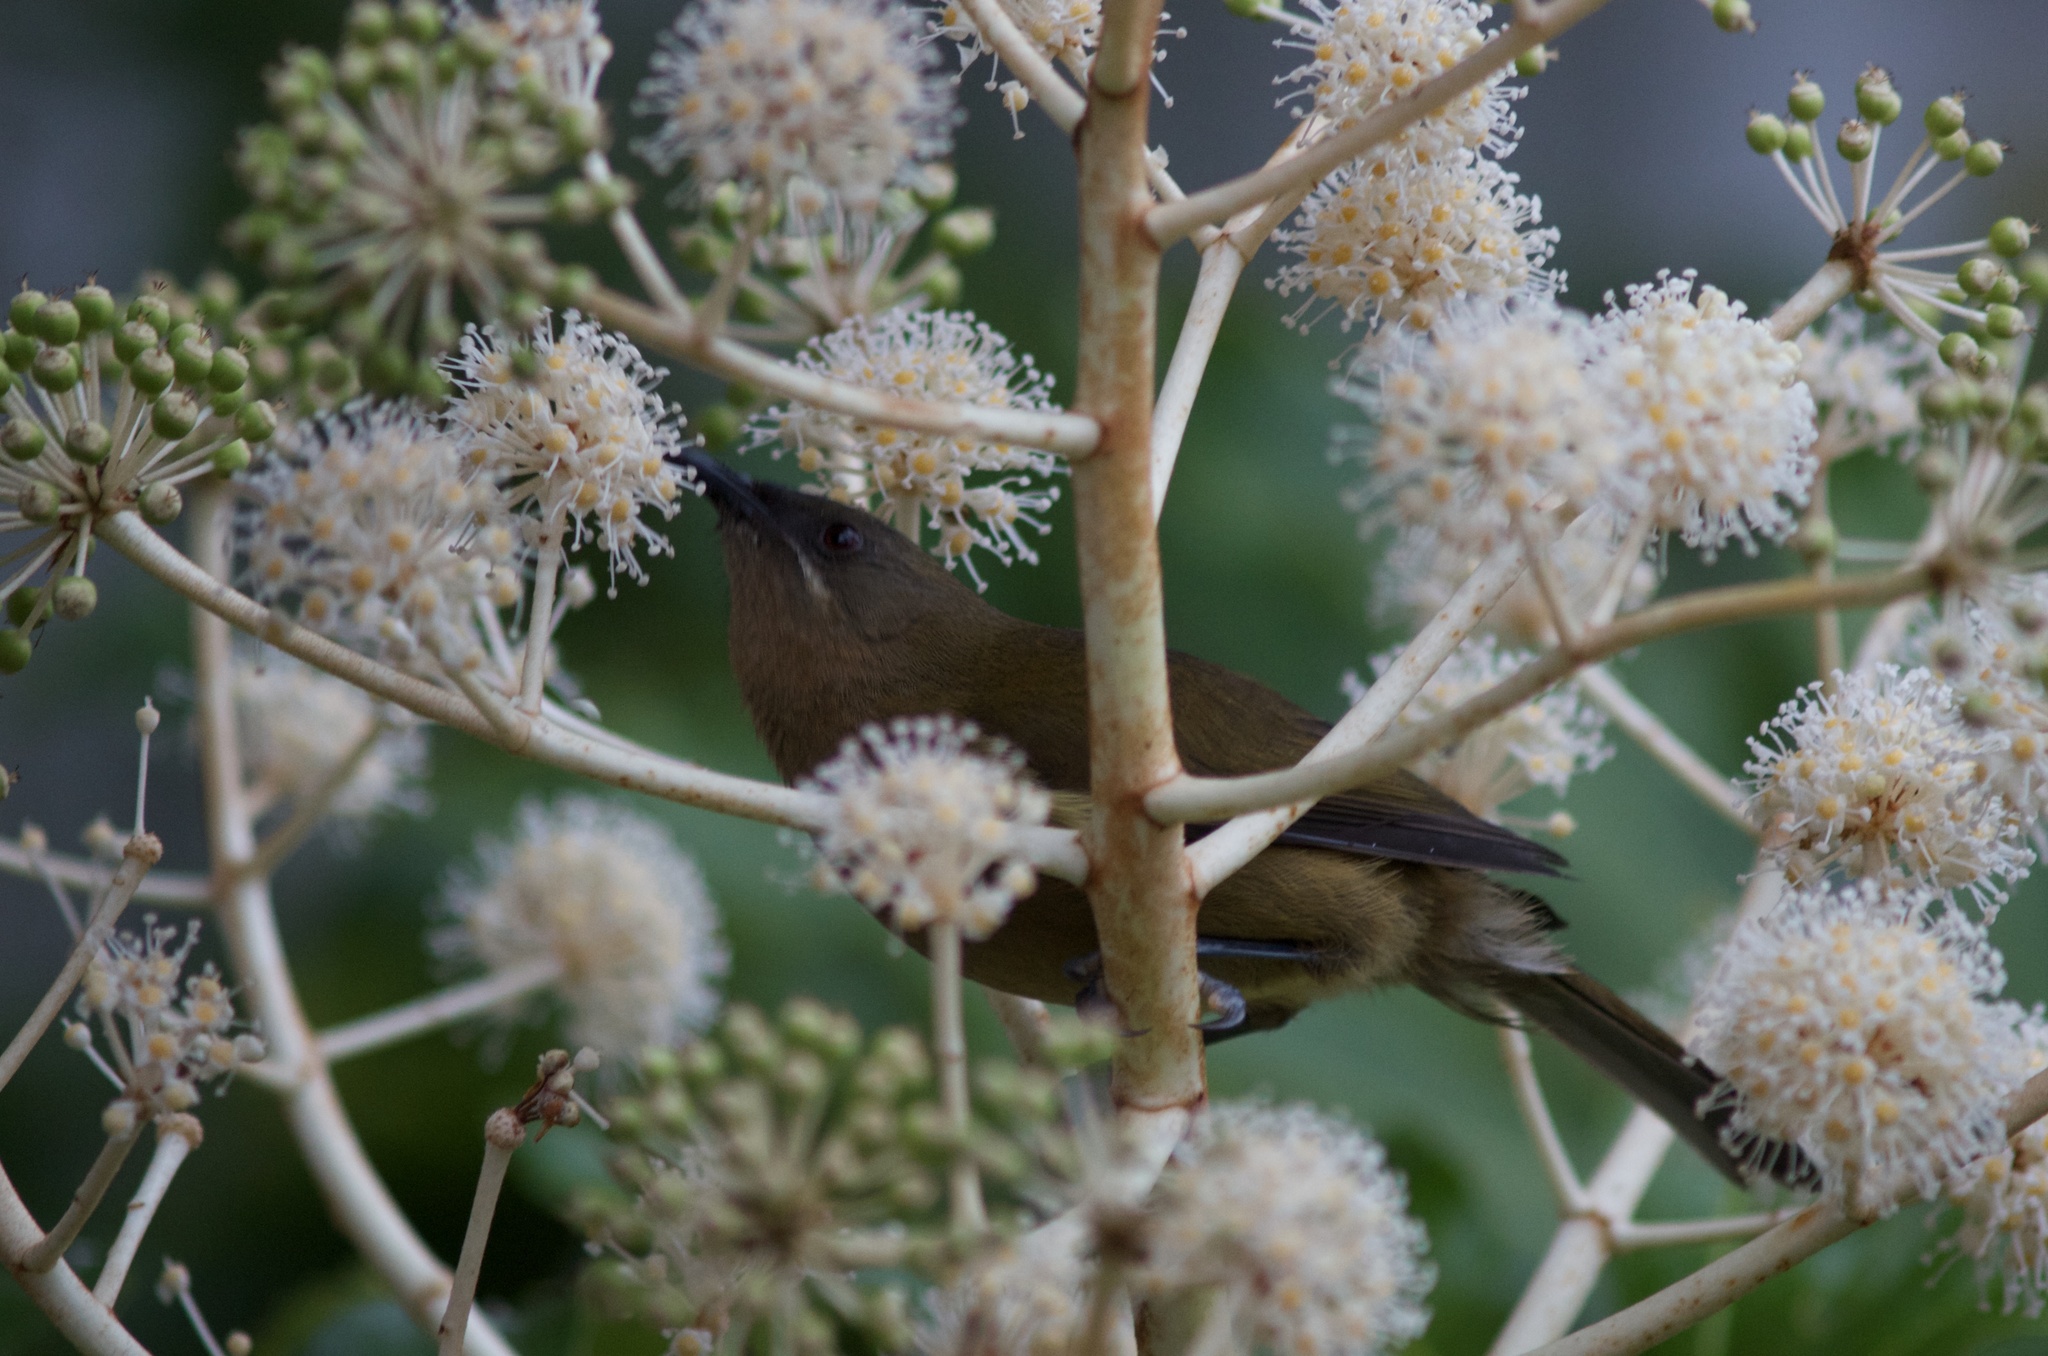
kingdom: Animalia
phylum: Chordata
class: Aves
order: Passeriformes
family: Meliphagidae
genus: Anthornis
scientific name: Anthornis melanura
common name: New zealand bellbird
